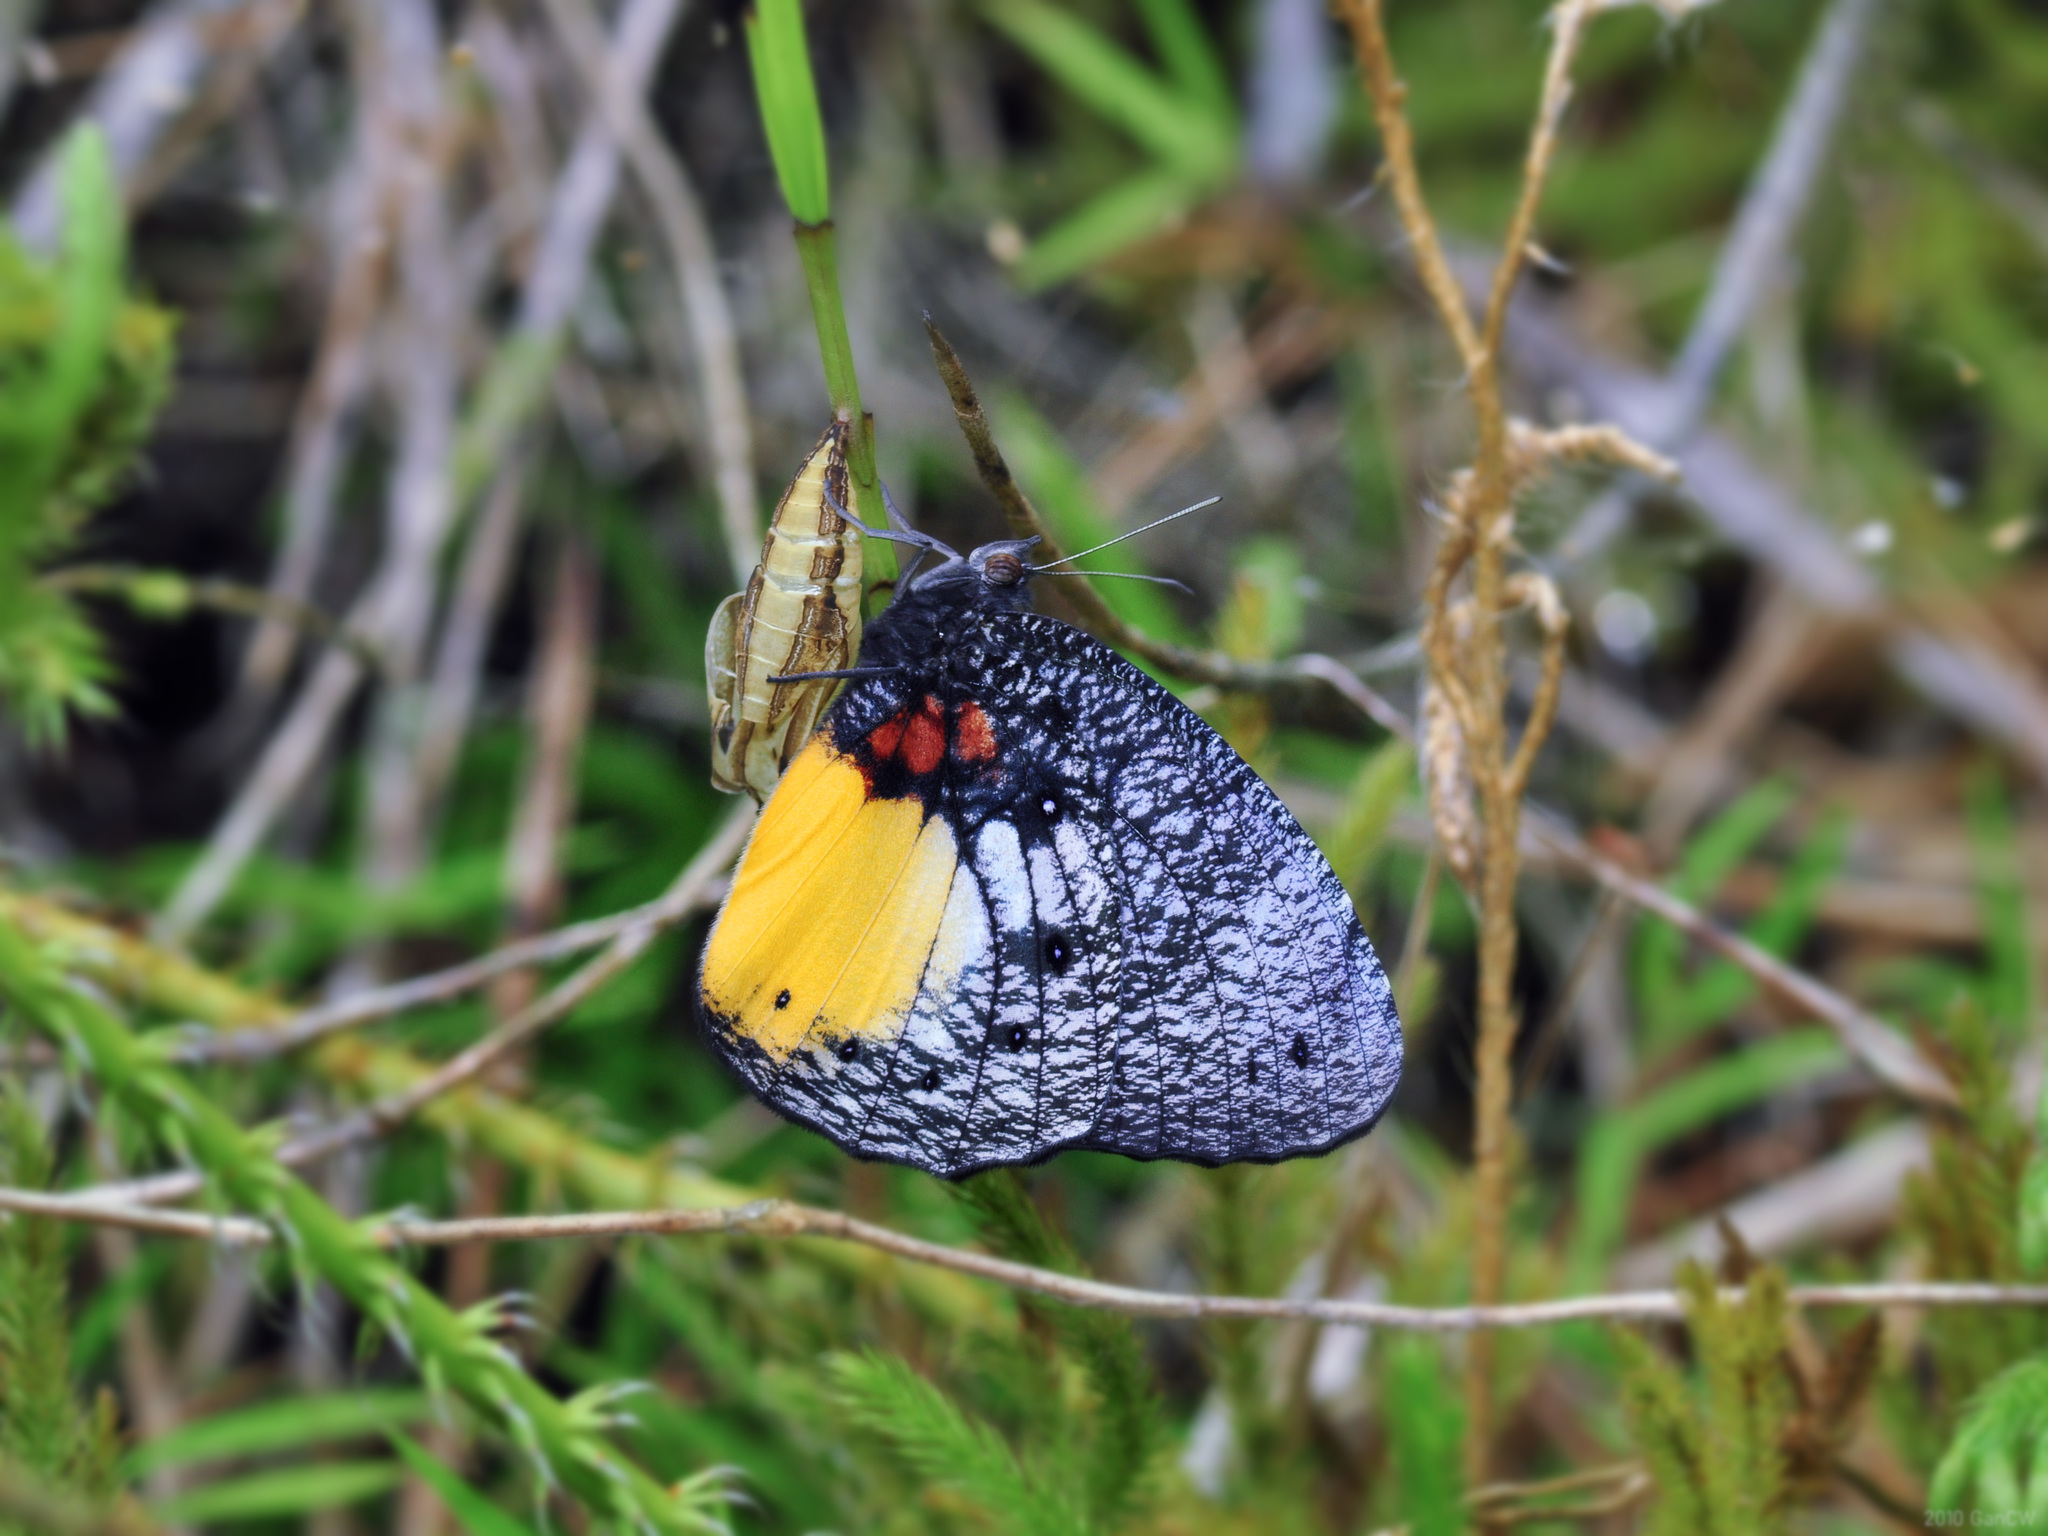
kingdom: Animalia
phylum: Arthropoda
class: Insecta
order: Lepidoptera
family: Nymphalidae
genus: Elymnias
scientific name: Elymnias esaca
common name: Green palmfly
